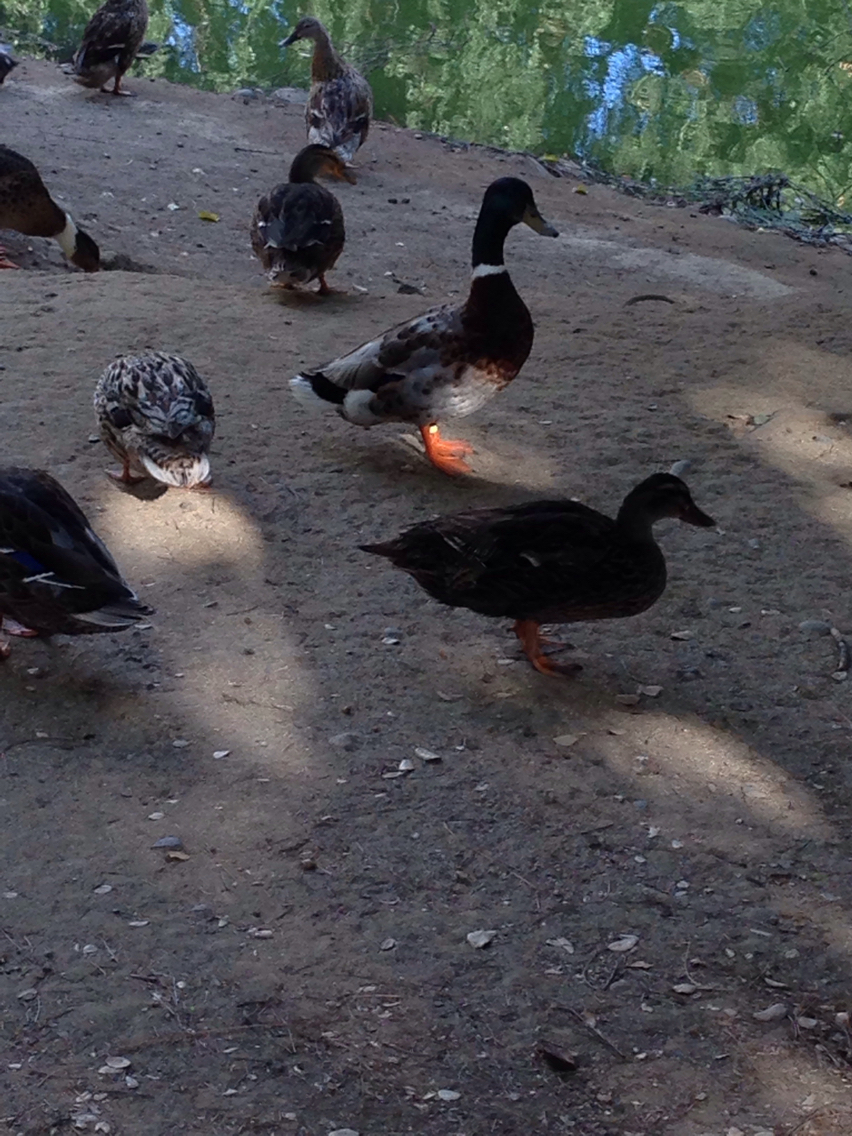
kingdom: Animalia
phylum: Chordata
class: Aves
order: Anseriformes
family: Anatidae
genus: Anas
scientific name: Anas platyrhynchos
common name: Mallard
